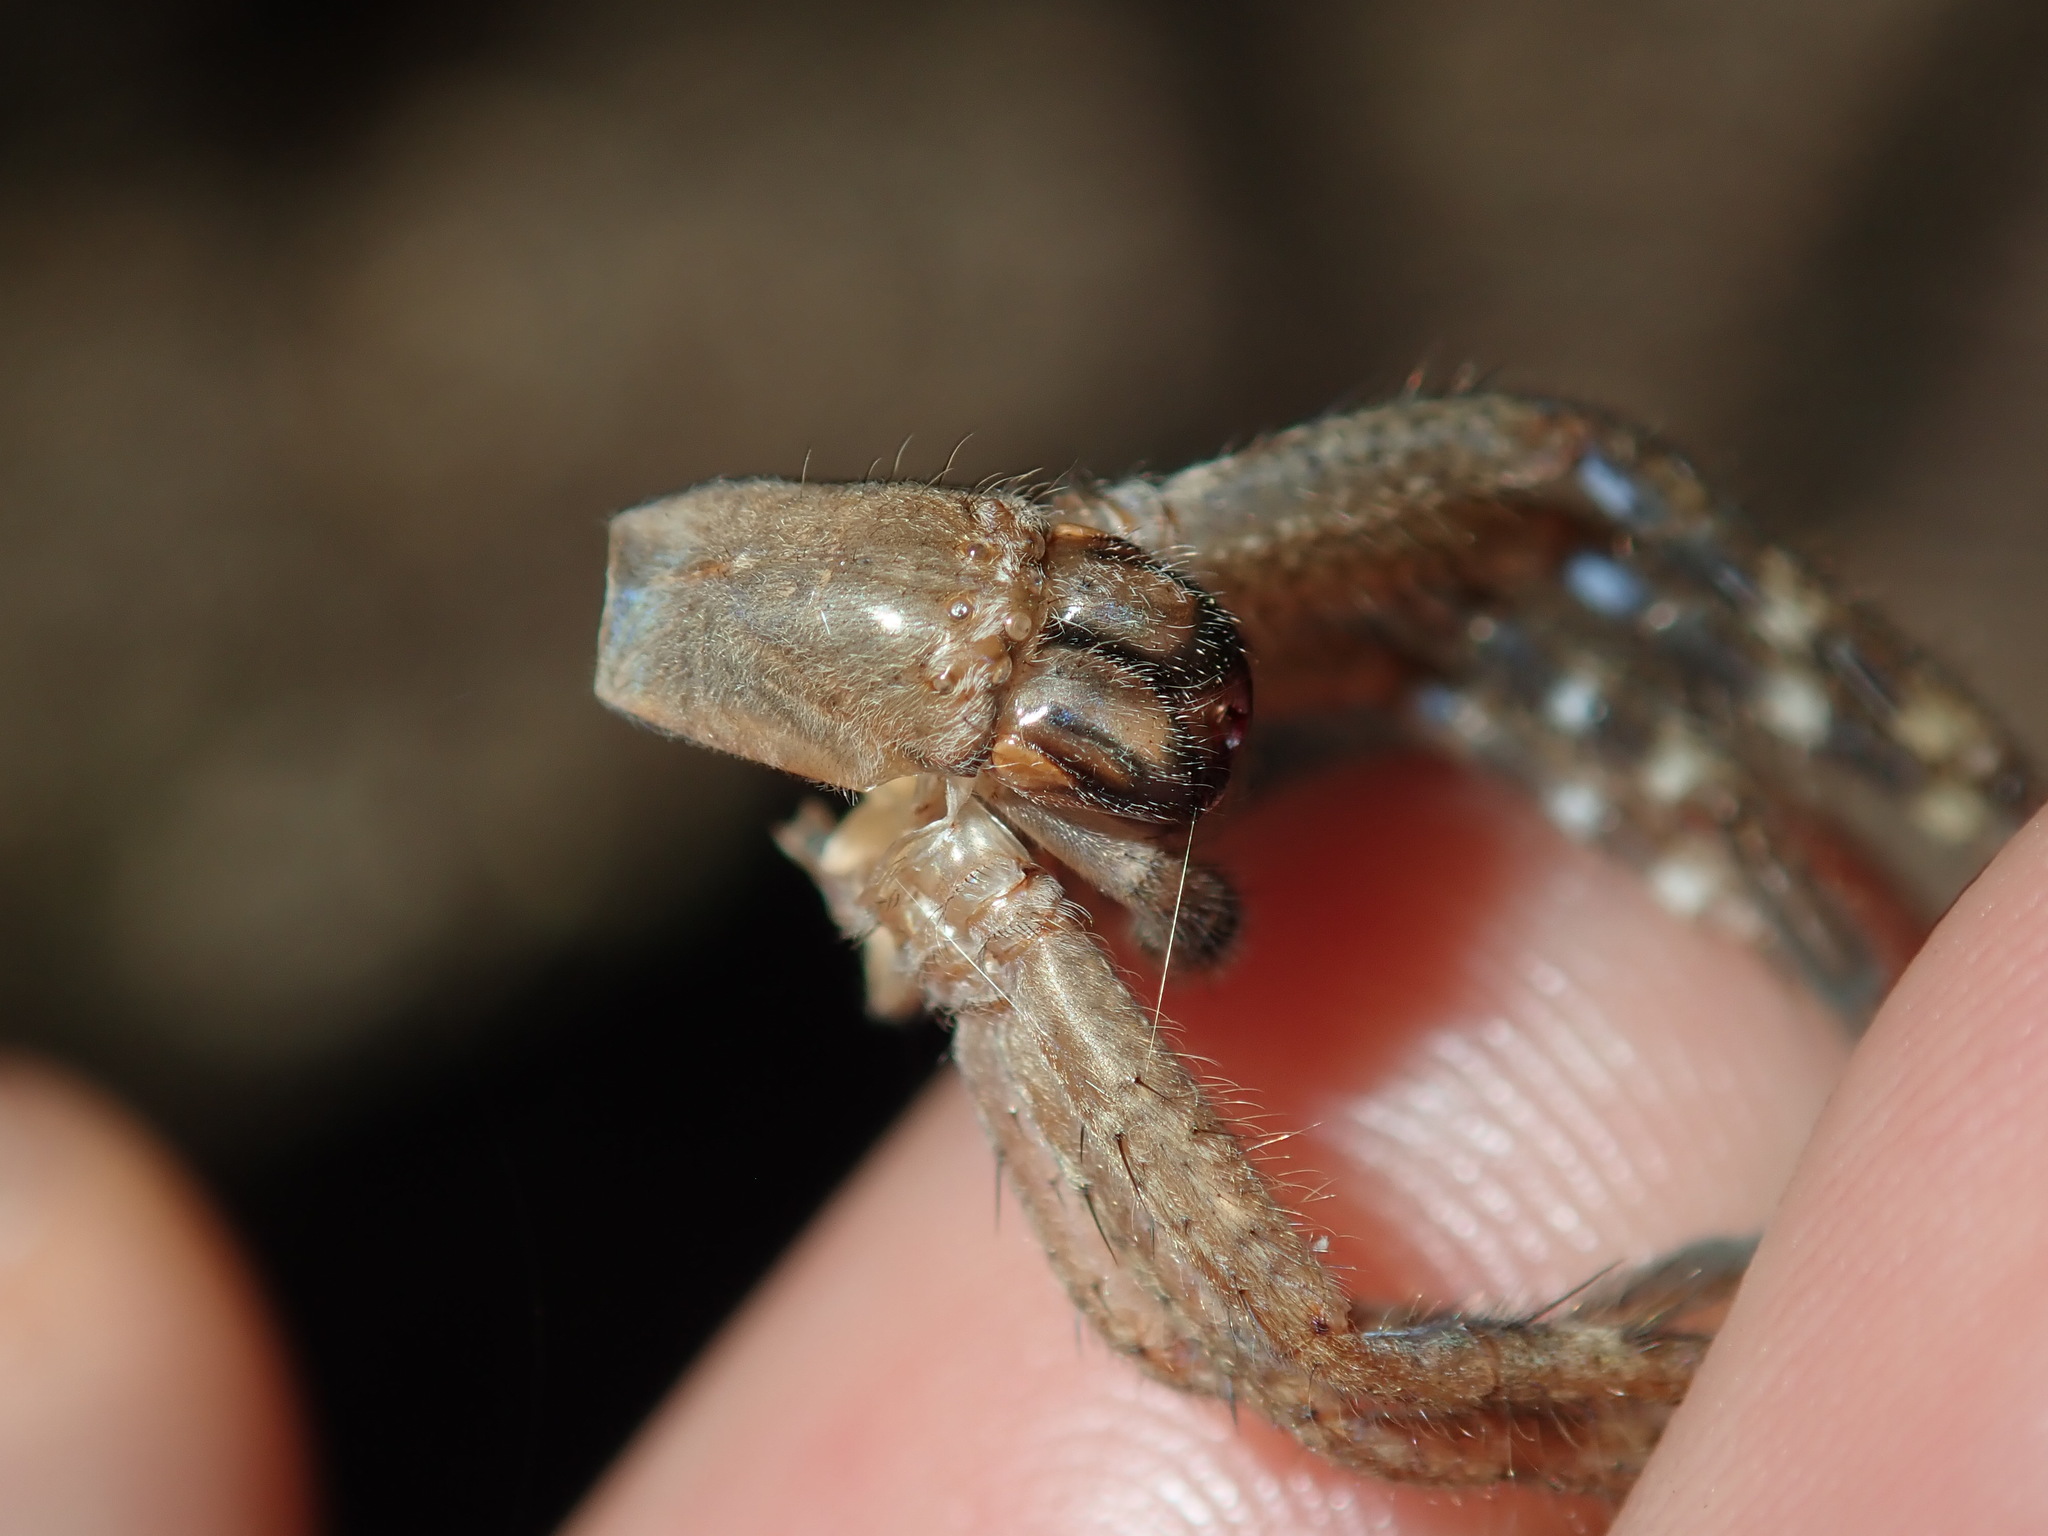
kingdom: Animalia
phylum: Arthropoda
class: Arachnida
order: Araneae
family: Sparassidae
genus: Neosparassus
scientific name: Neosparassus calligaster
